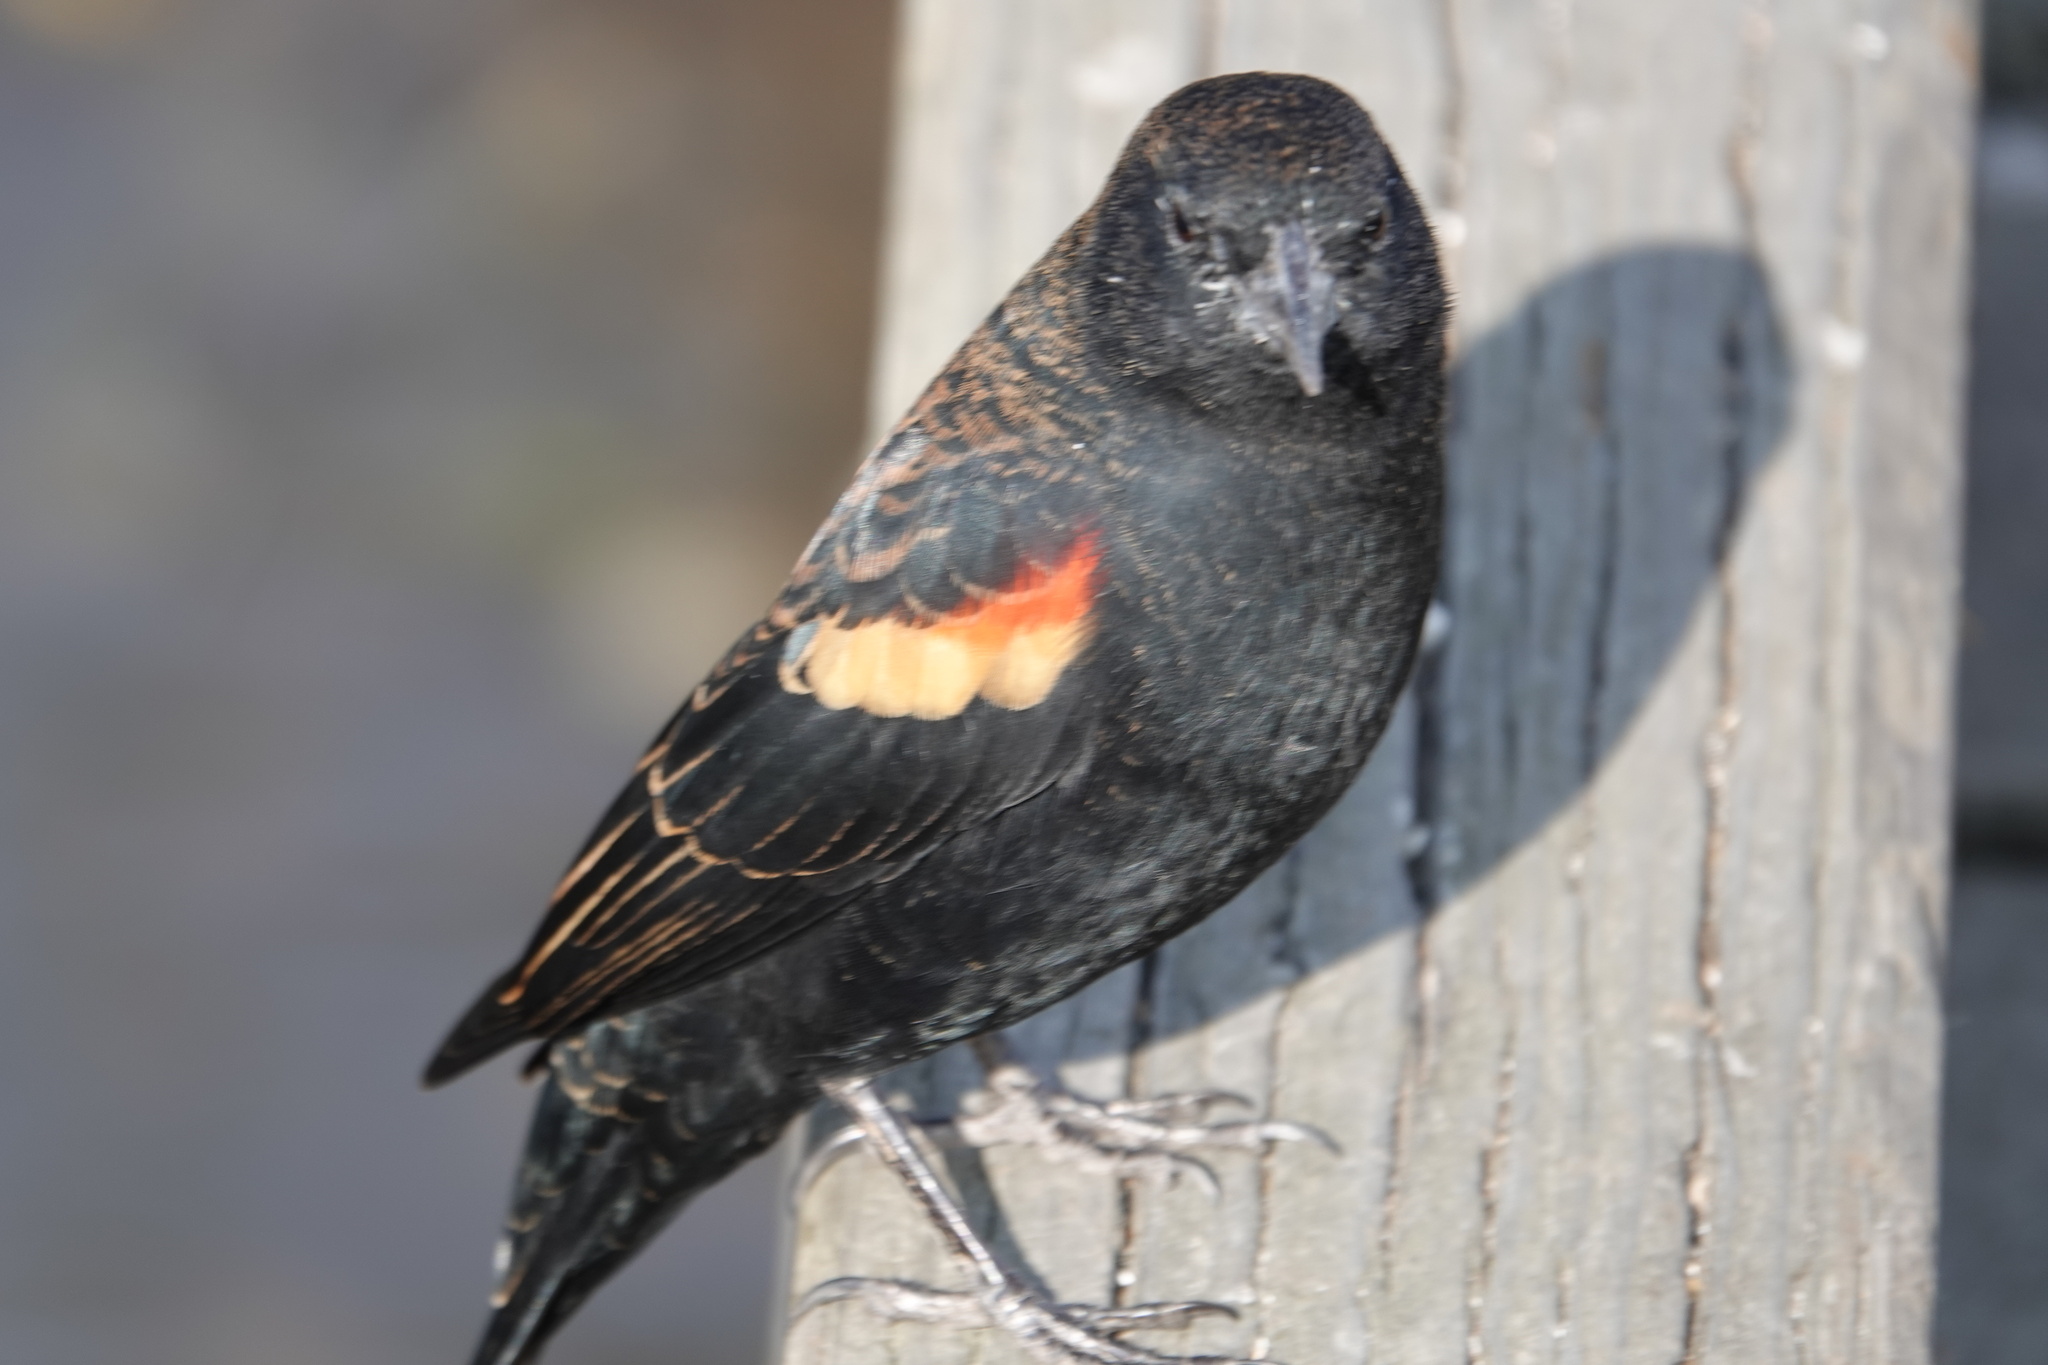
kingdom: Animalia
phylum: Chordata
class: Aves
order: Passeriformes
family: Icteridae
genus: Agelaius
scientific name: Agelaius phoeniceus
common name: Red-winged blackbird
